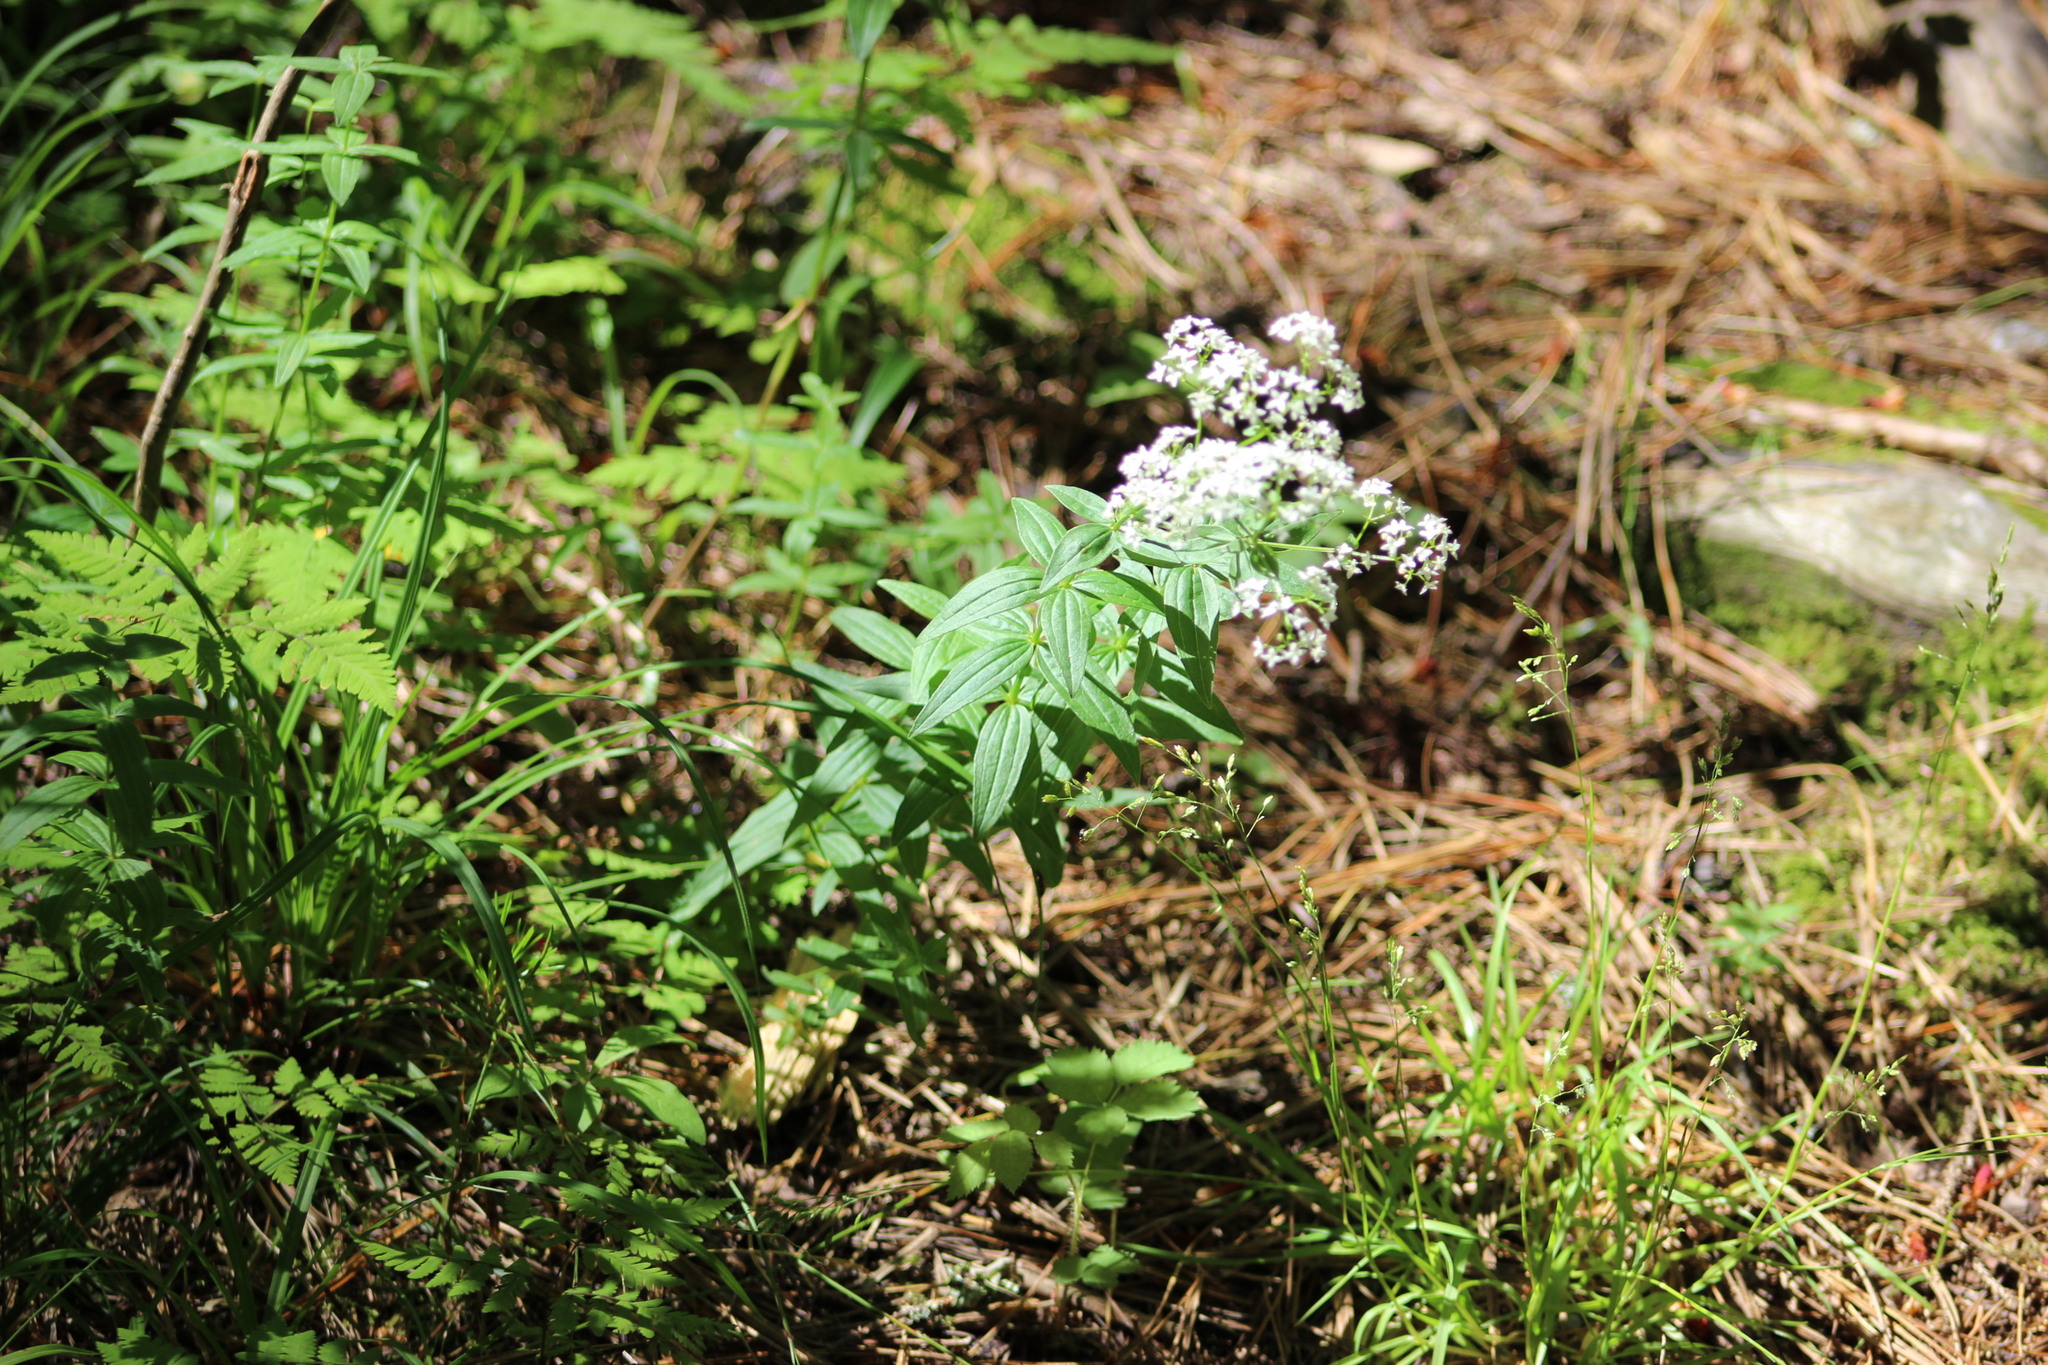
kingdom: Plantae
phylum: Tracheophyta
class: Magnoliopsida
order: Gentianales
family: Rubiaceae
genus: Galium
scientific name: Galium boreale
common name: Northern bedstraw
